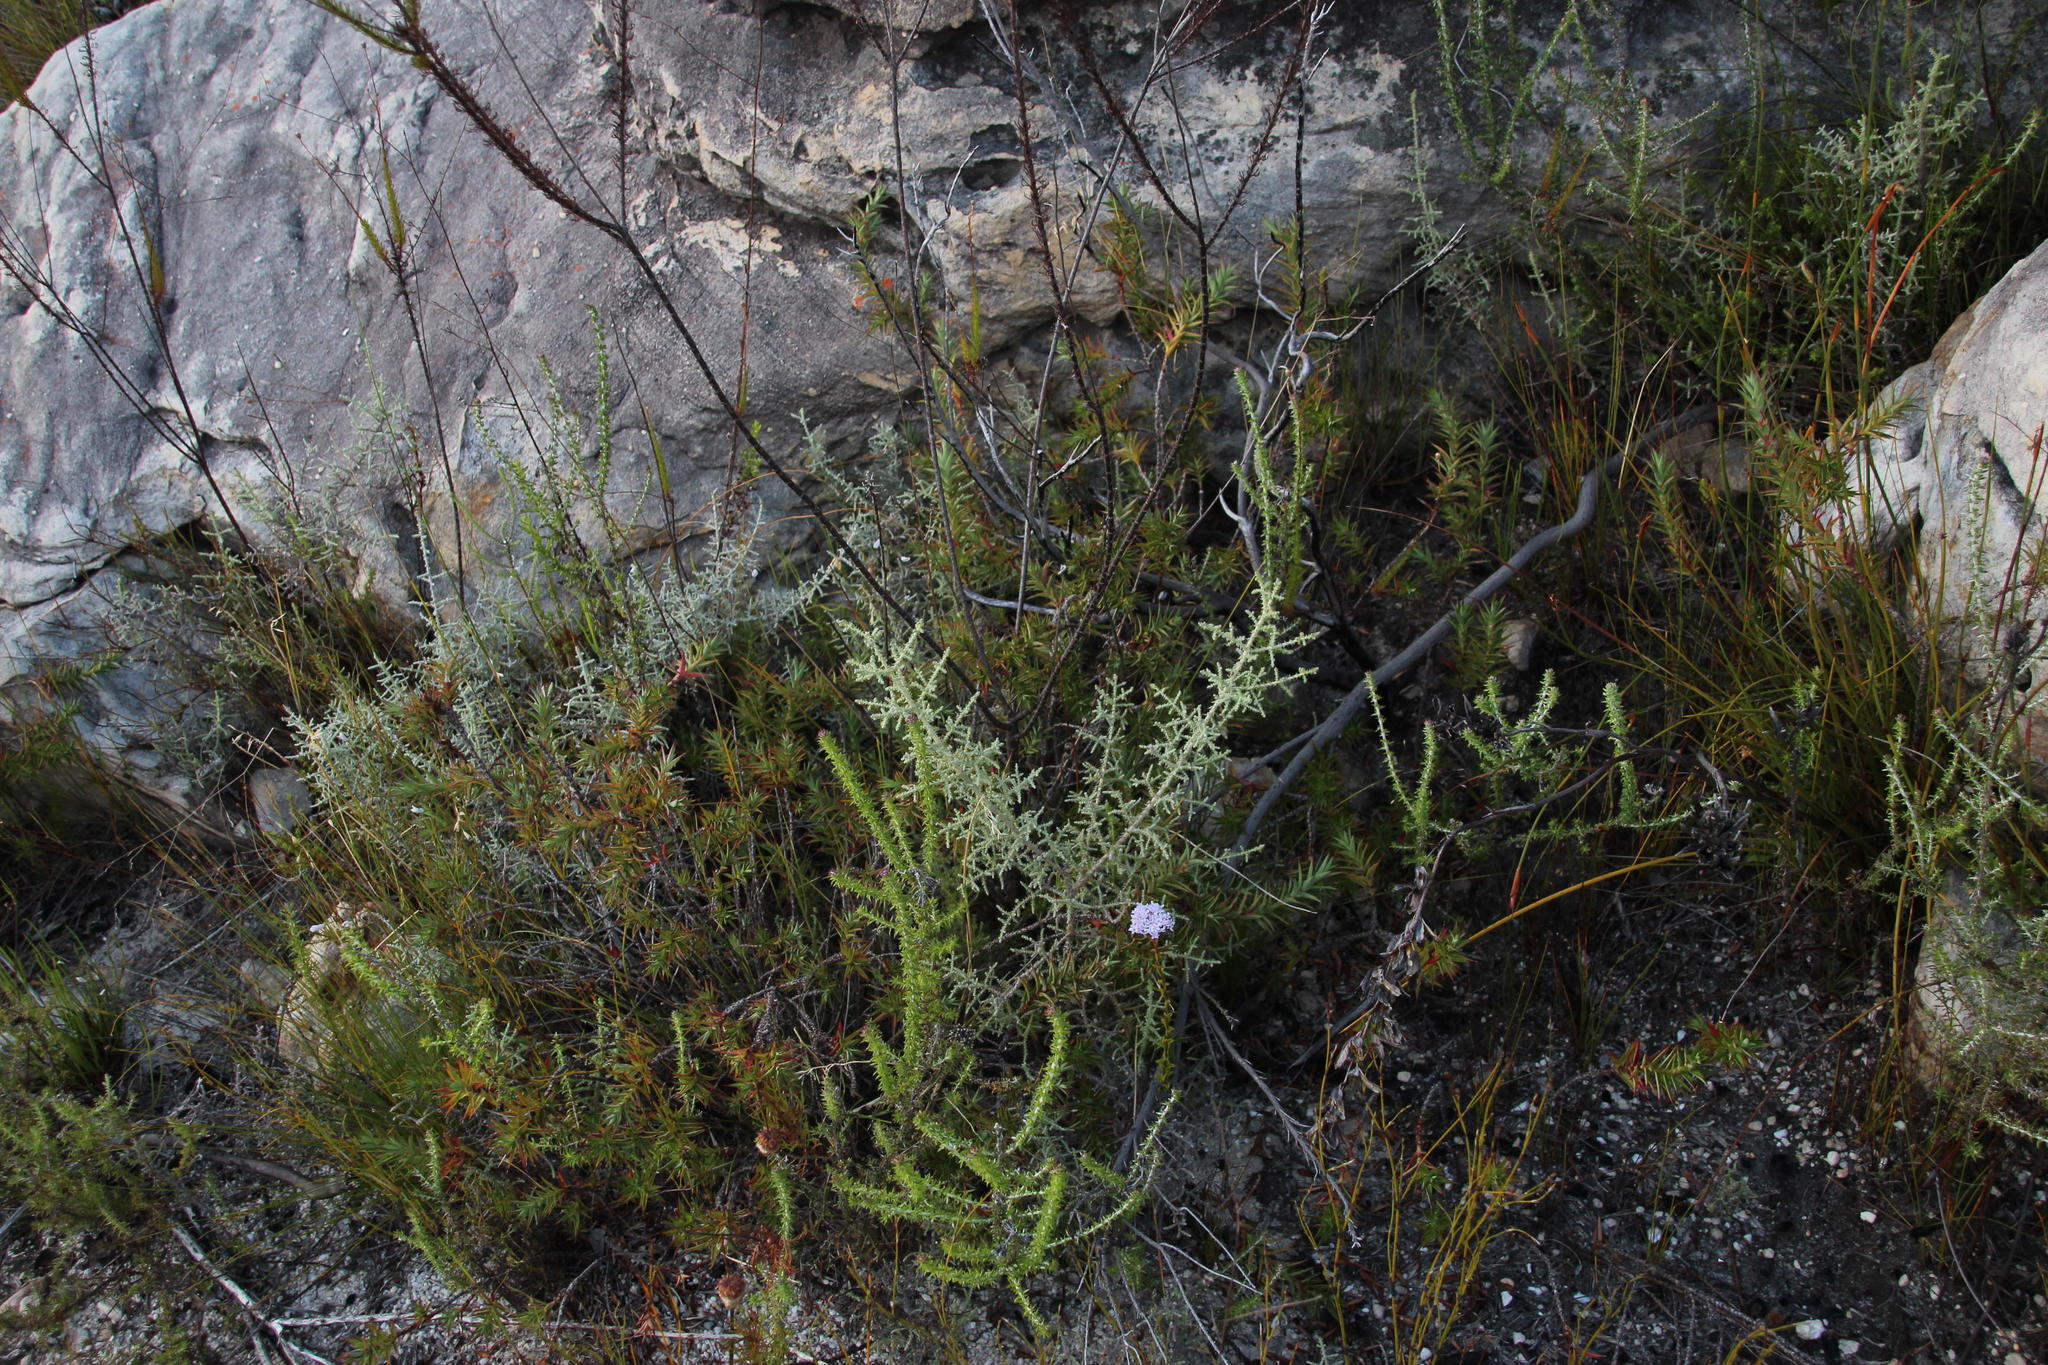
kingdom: Plantae
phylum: Tracheophyta
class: Magnoliopsida
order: Asterales
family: Asteraceae
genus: Seriphium
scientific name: Seriphium plumosum
